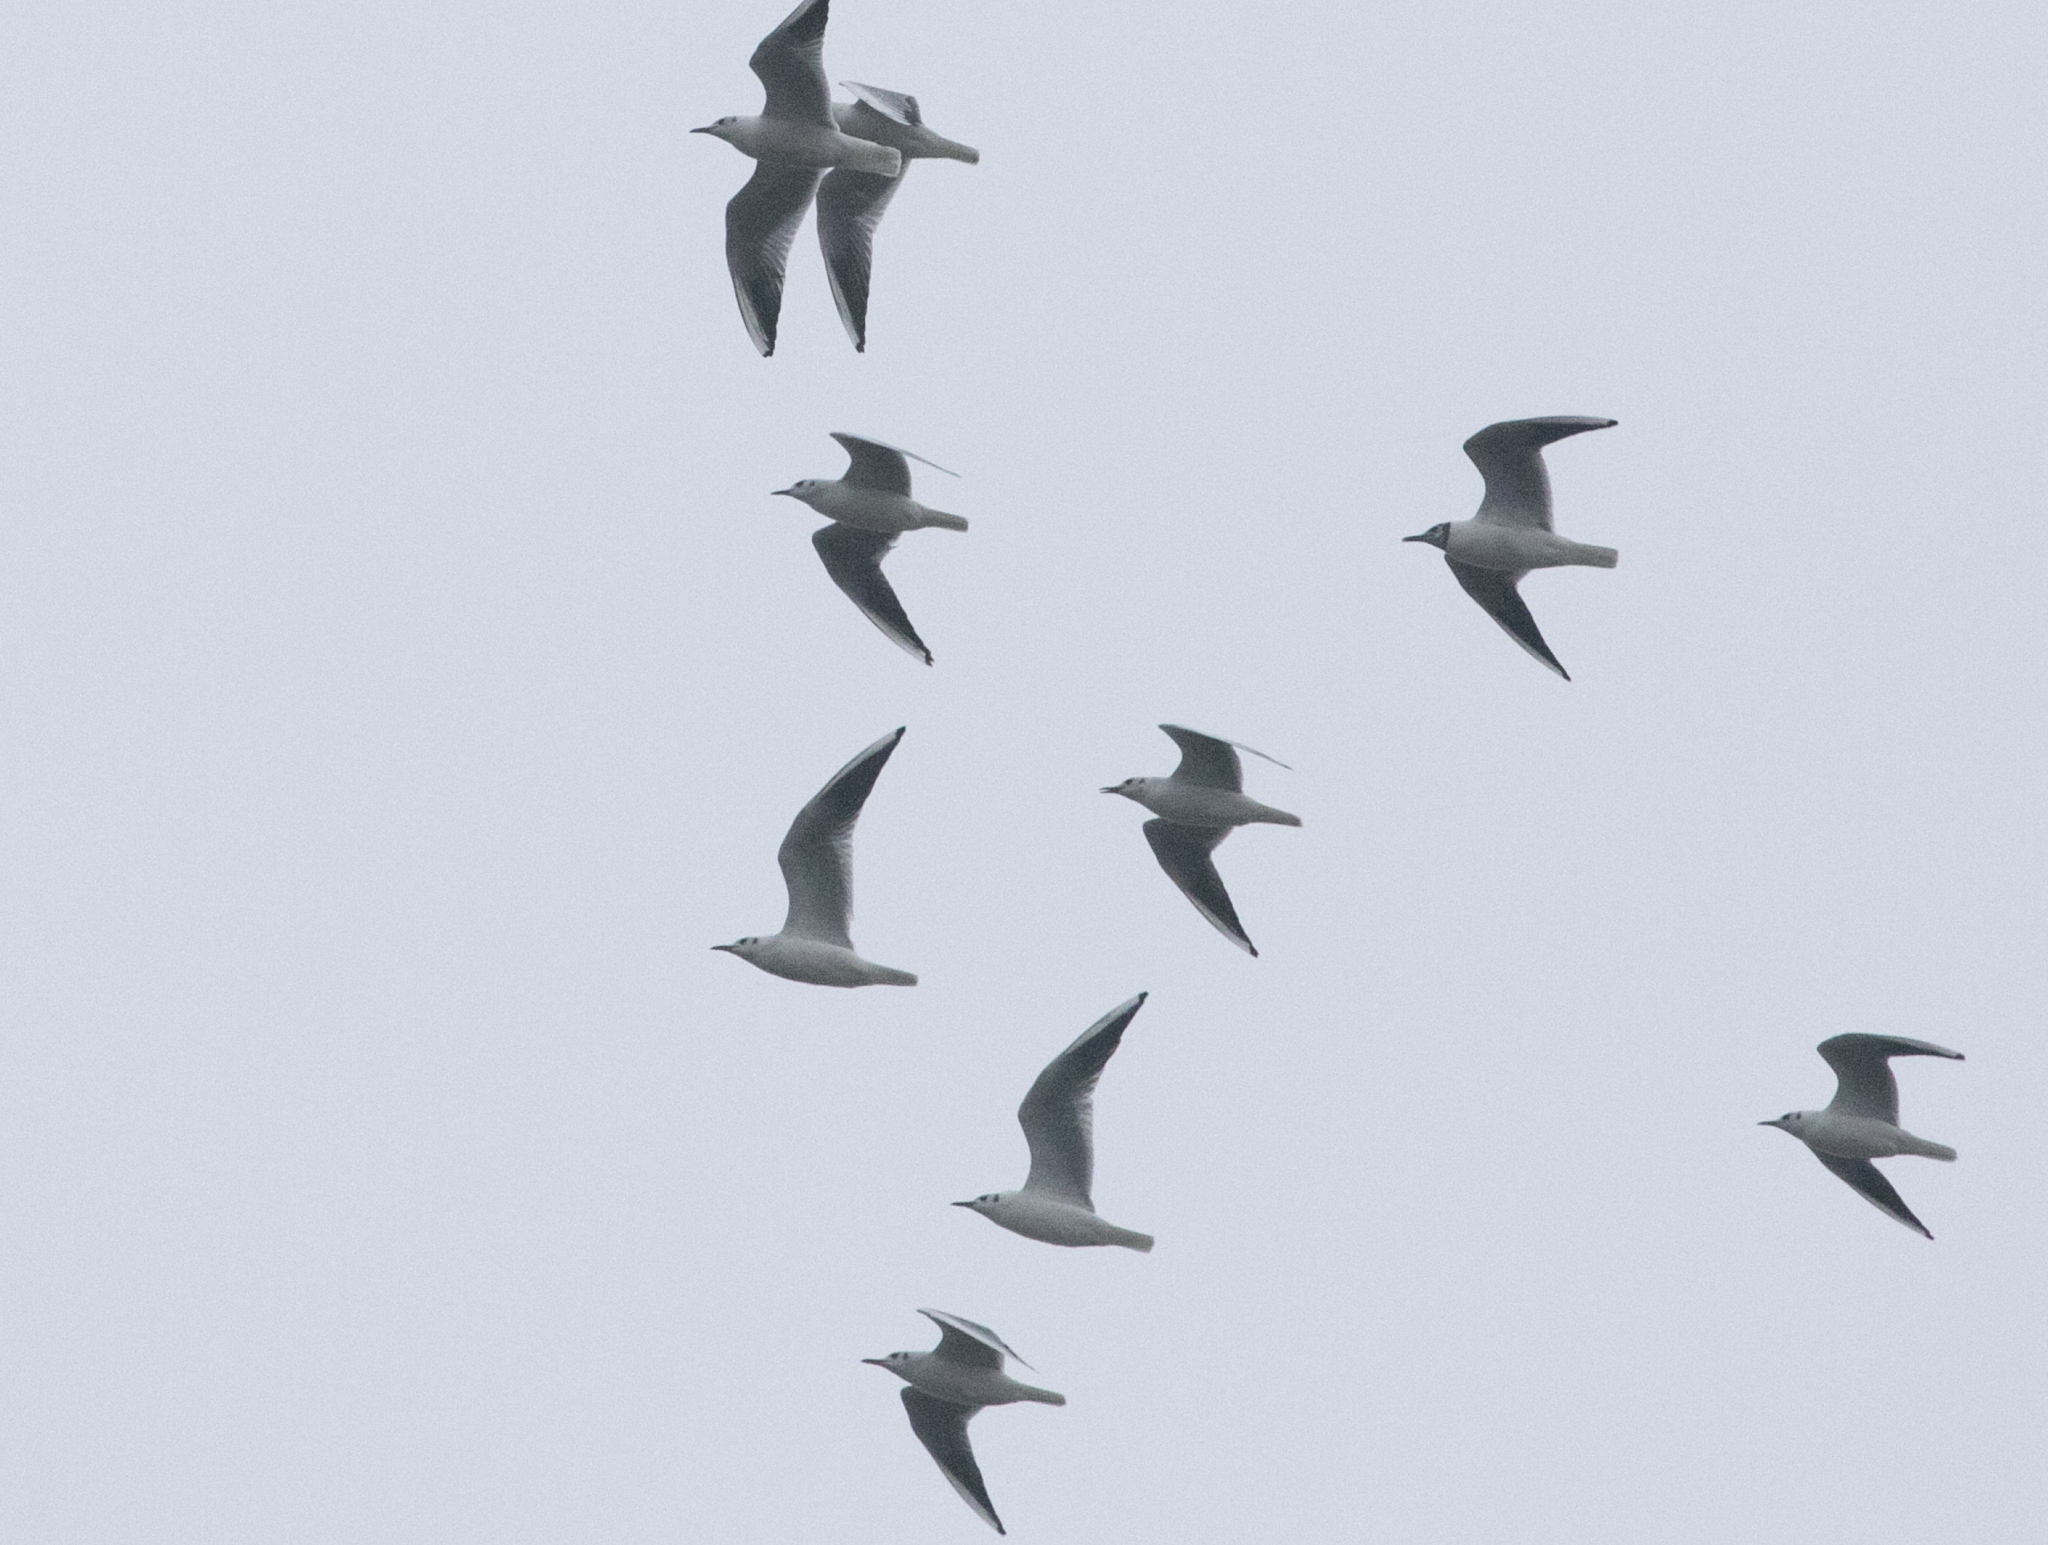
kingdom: Animalia
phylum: Chordata
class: Aves
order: Charadriiformes
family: Laridae
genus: Chroicocephalus
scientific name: Chroicocephalus ridibundus
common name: Black-headed gull
